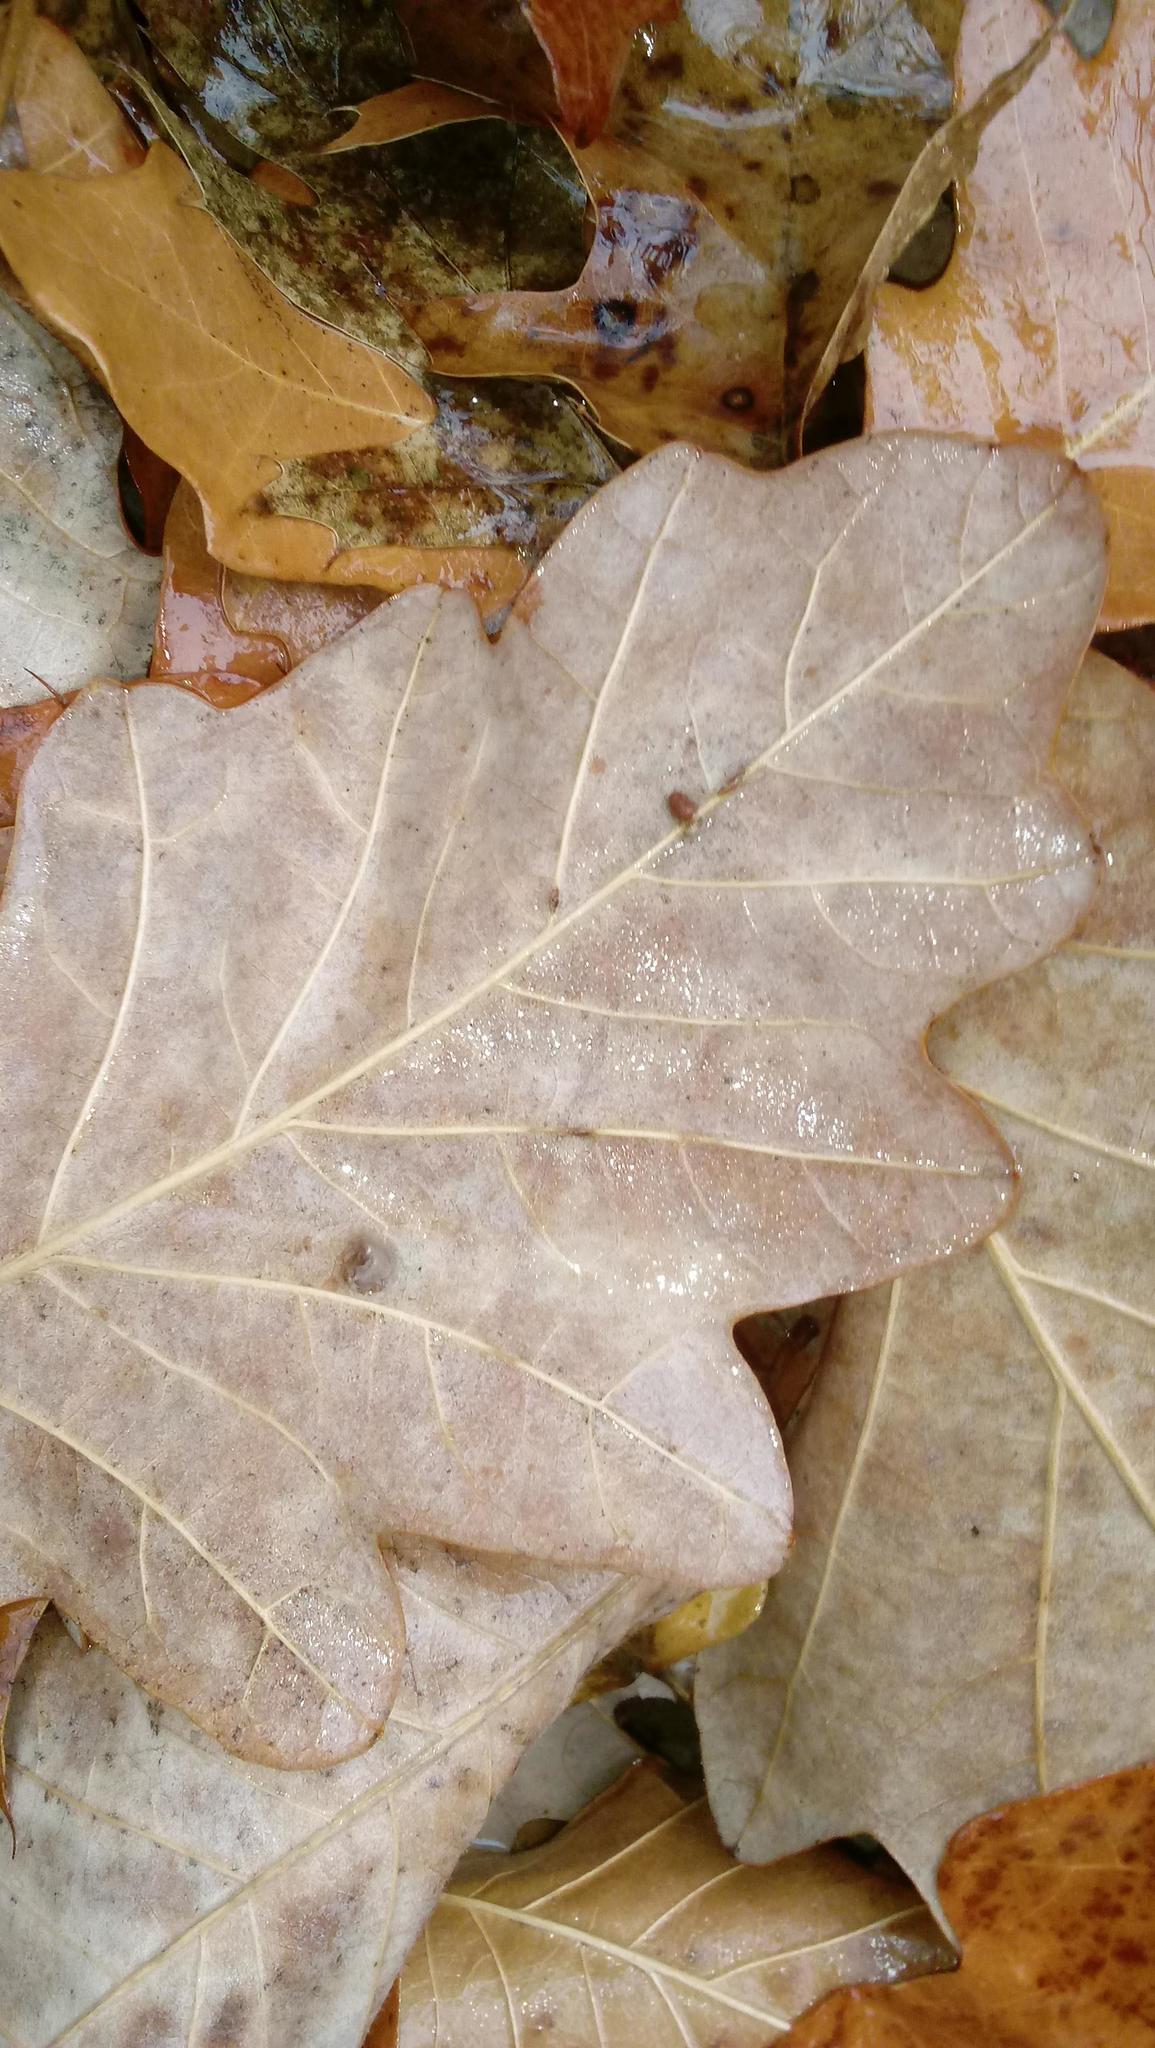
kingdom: Animalia
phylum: Arthropoda
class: Insecta
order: Hymenoptera
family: Cynipidae
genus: Andricus
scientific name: Andricus Druon ignotum
